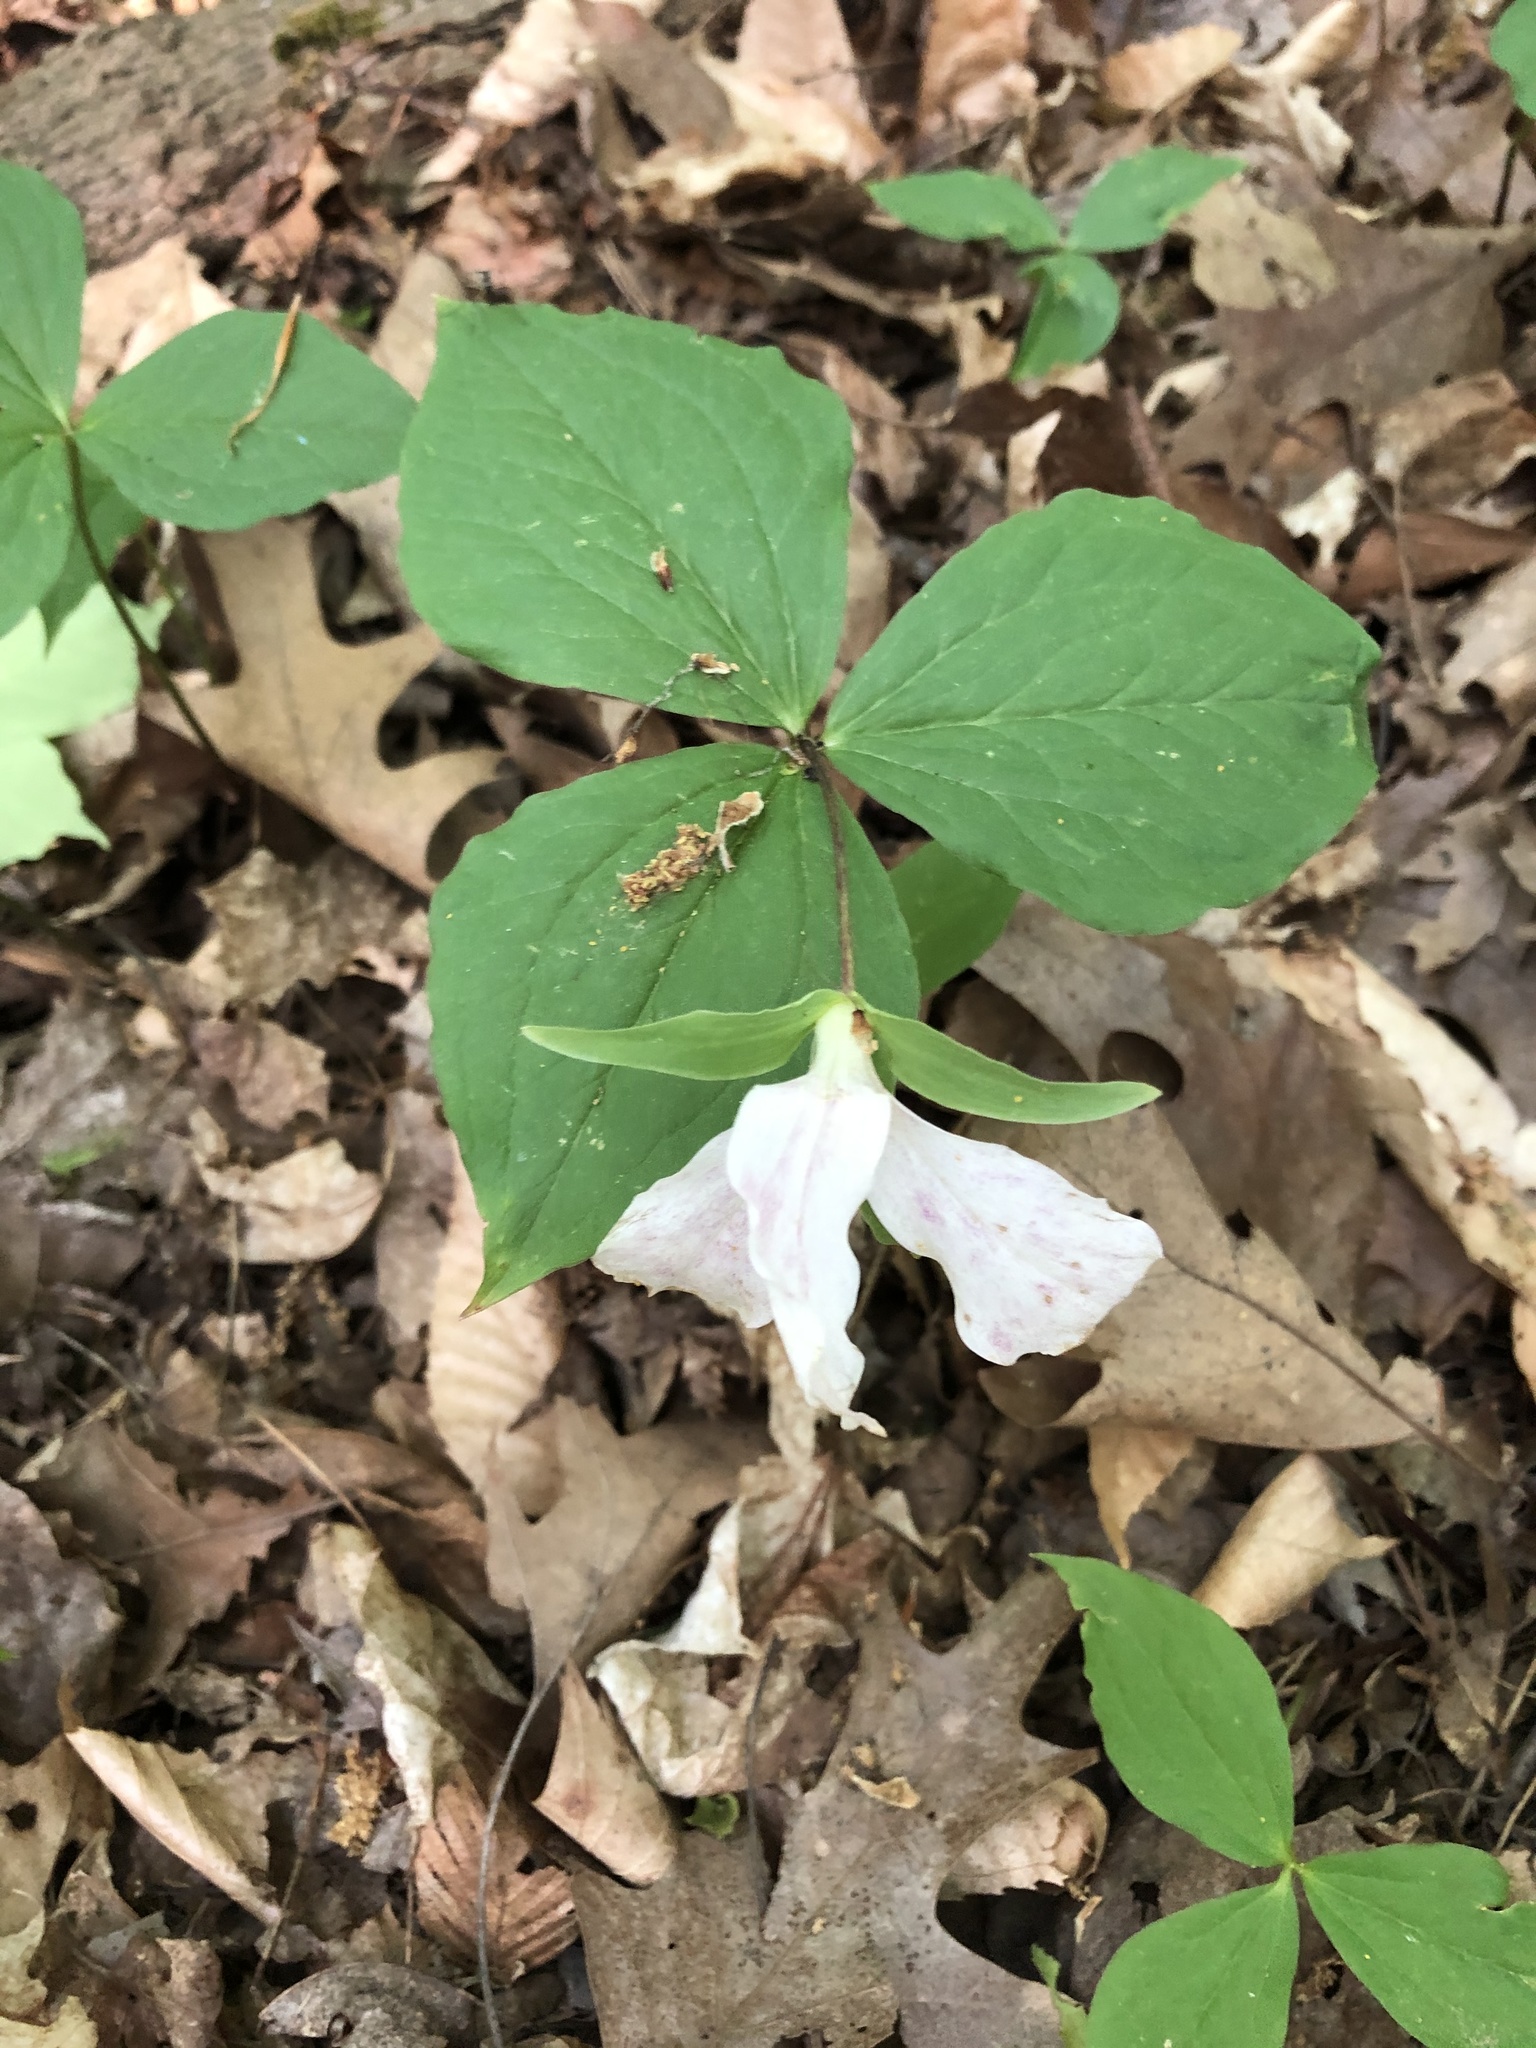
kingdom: Plantae
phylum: Tracheophyta
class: Liliopsida
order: Liliales
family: Melanthiaceae
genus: Trillium
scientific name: Trillium grandiflorum
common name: Great white trillium
